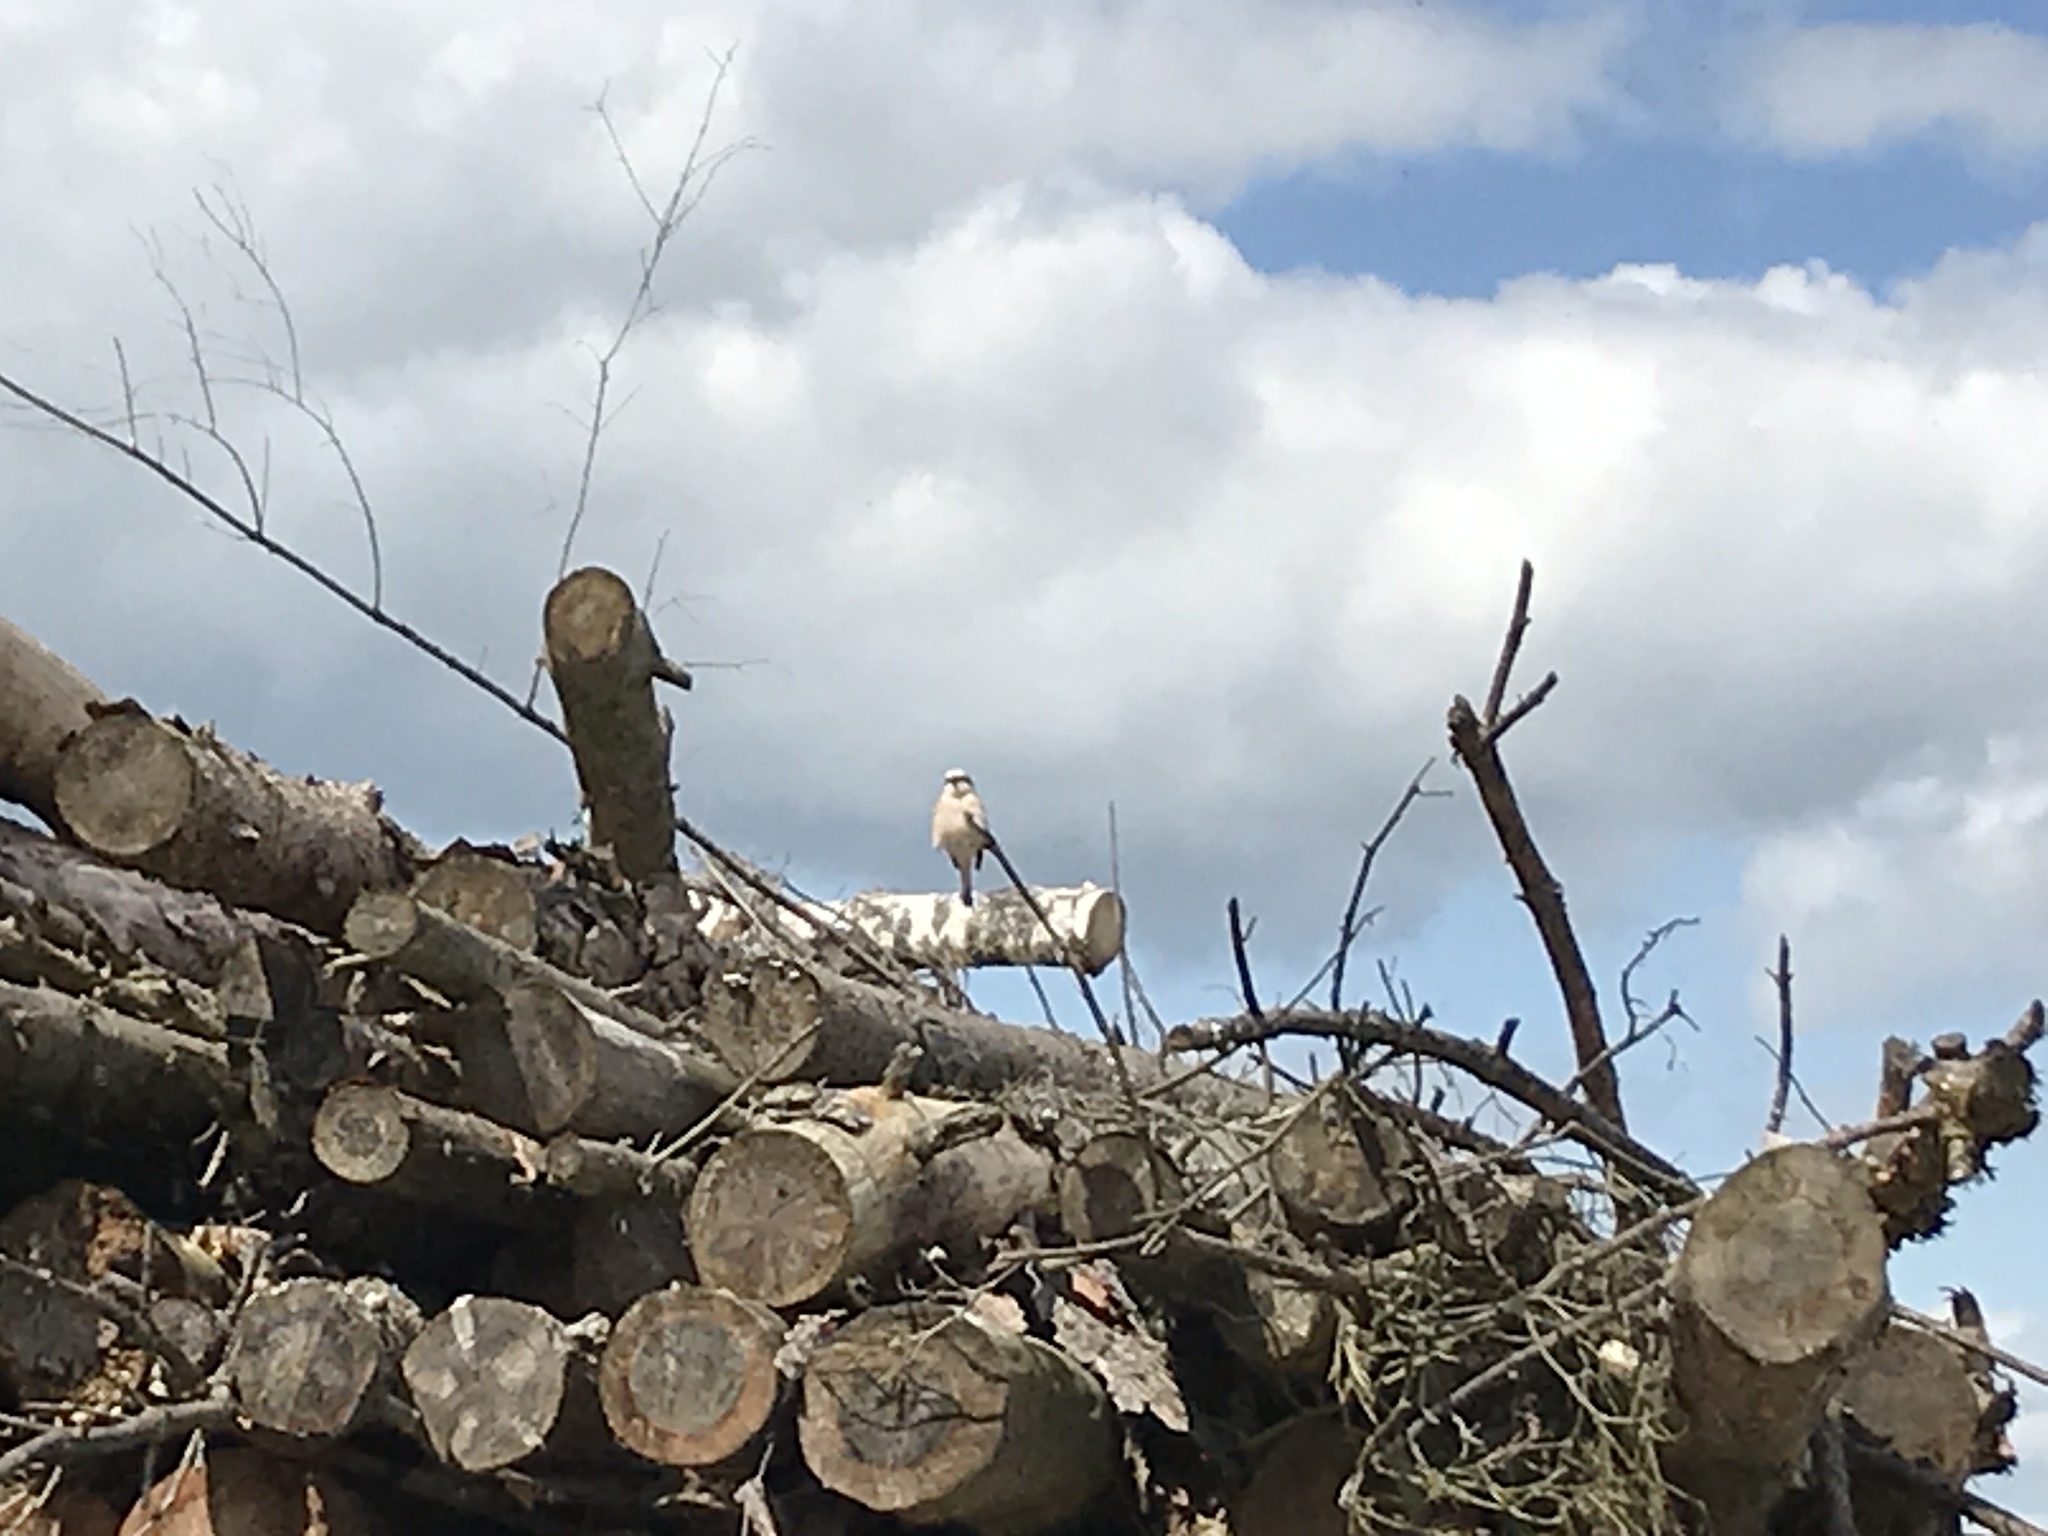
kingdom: Animalia
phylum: Chordata
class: Aves
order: Passeriformes
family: Laniidae
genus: Lanius
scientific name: Lanius collurio
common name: Red-backed shrike
